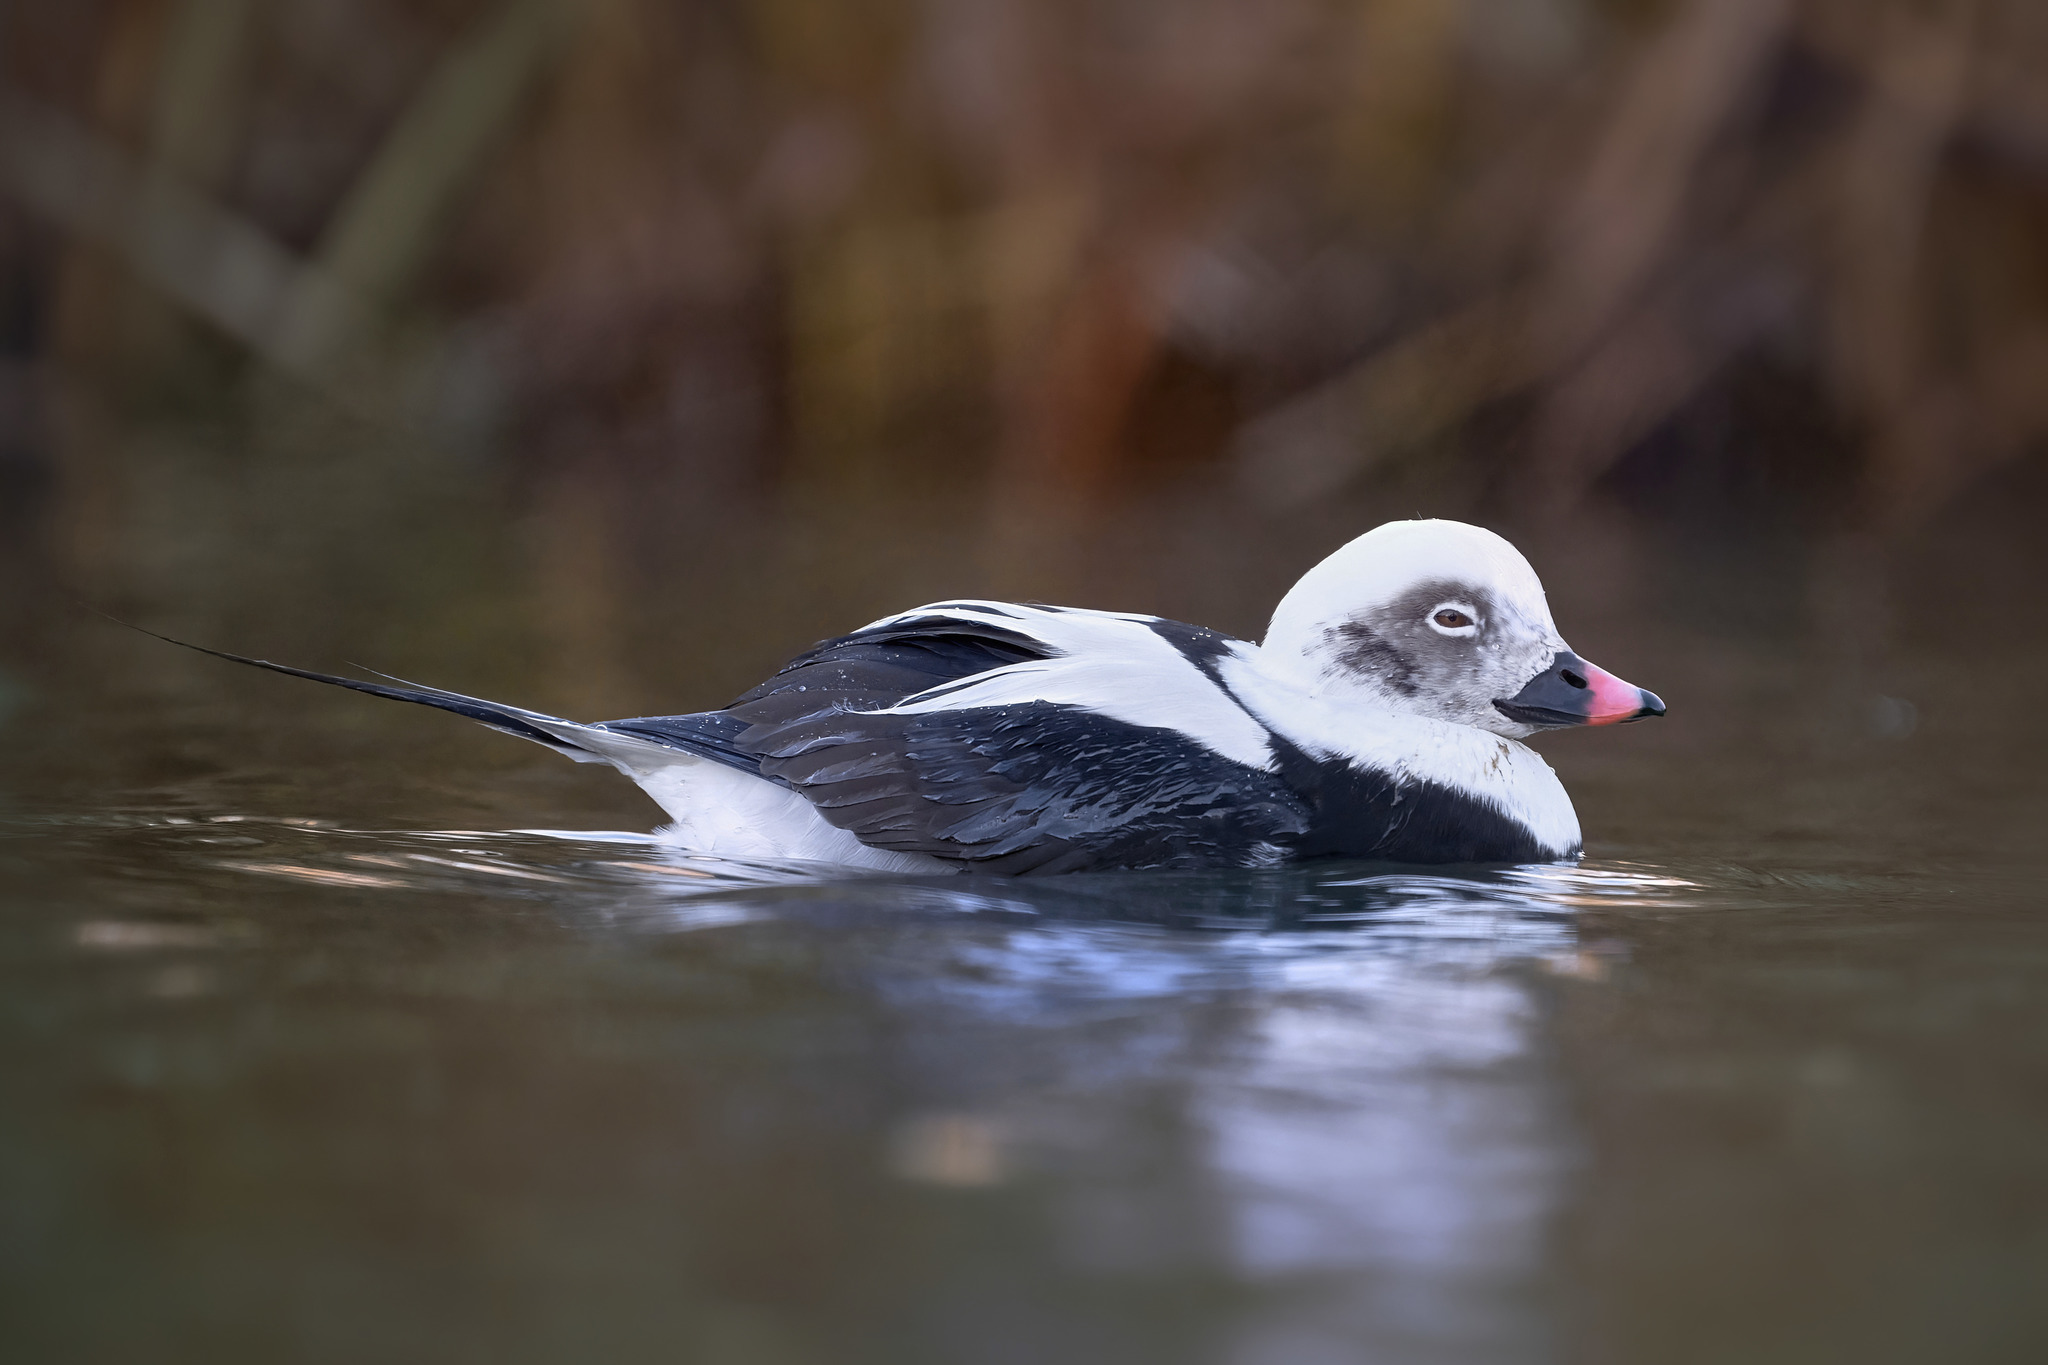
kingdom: Animalia
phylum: Chordata
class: Aves
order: Anseriformes
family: Anatidae
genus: Clangula
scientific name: Clangula hyemalis
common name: Long-tailed duck
